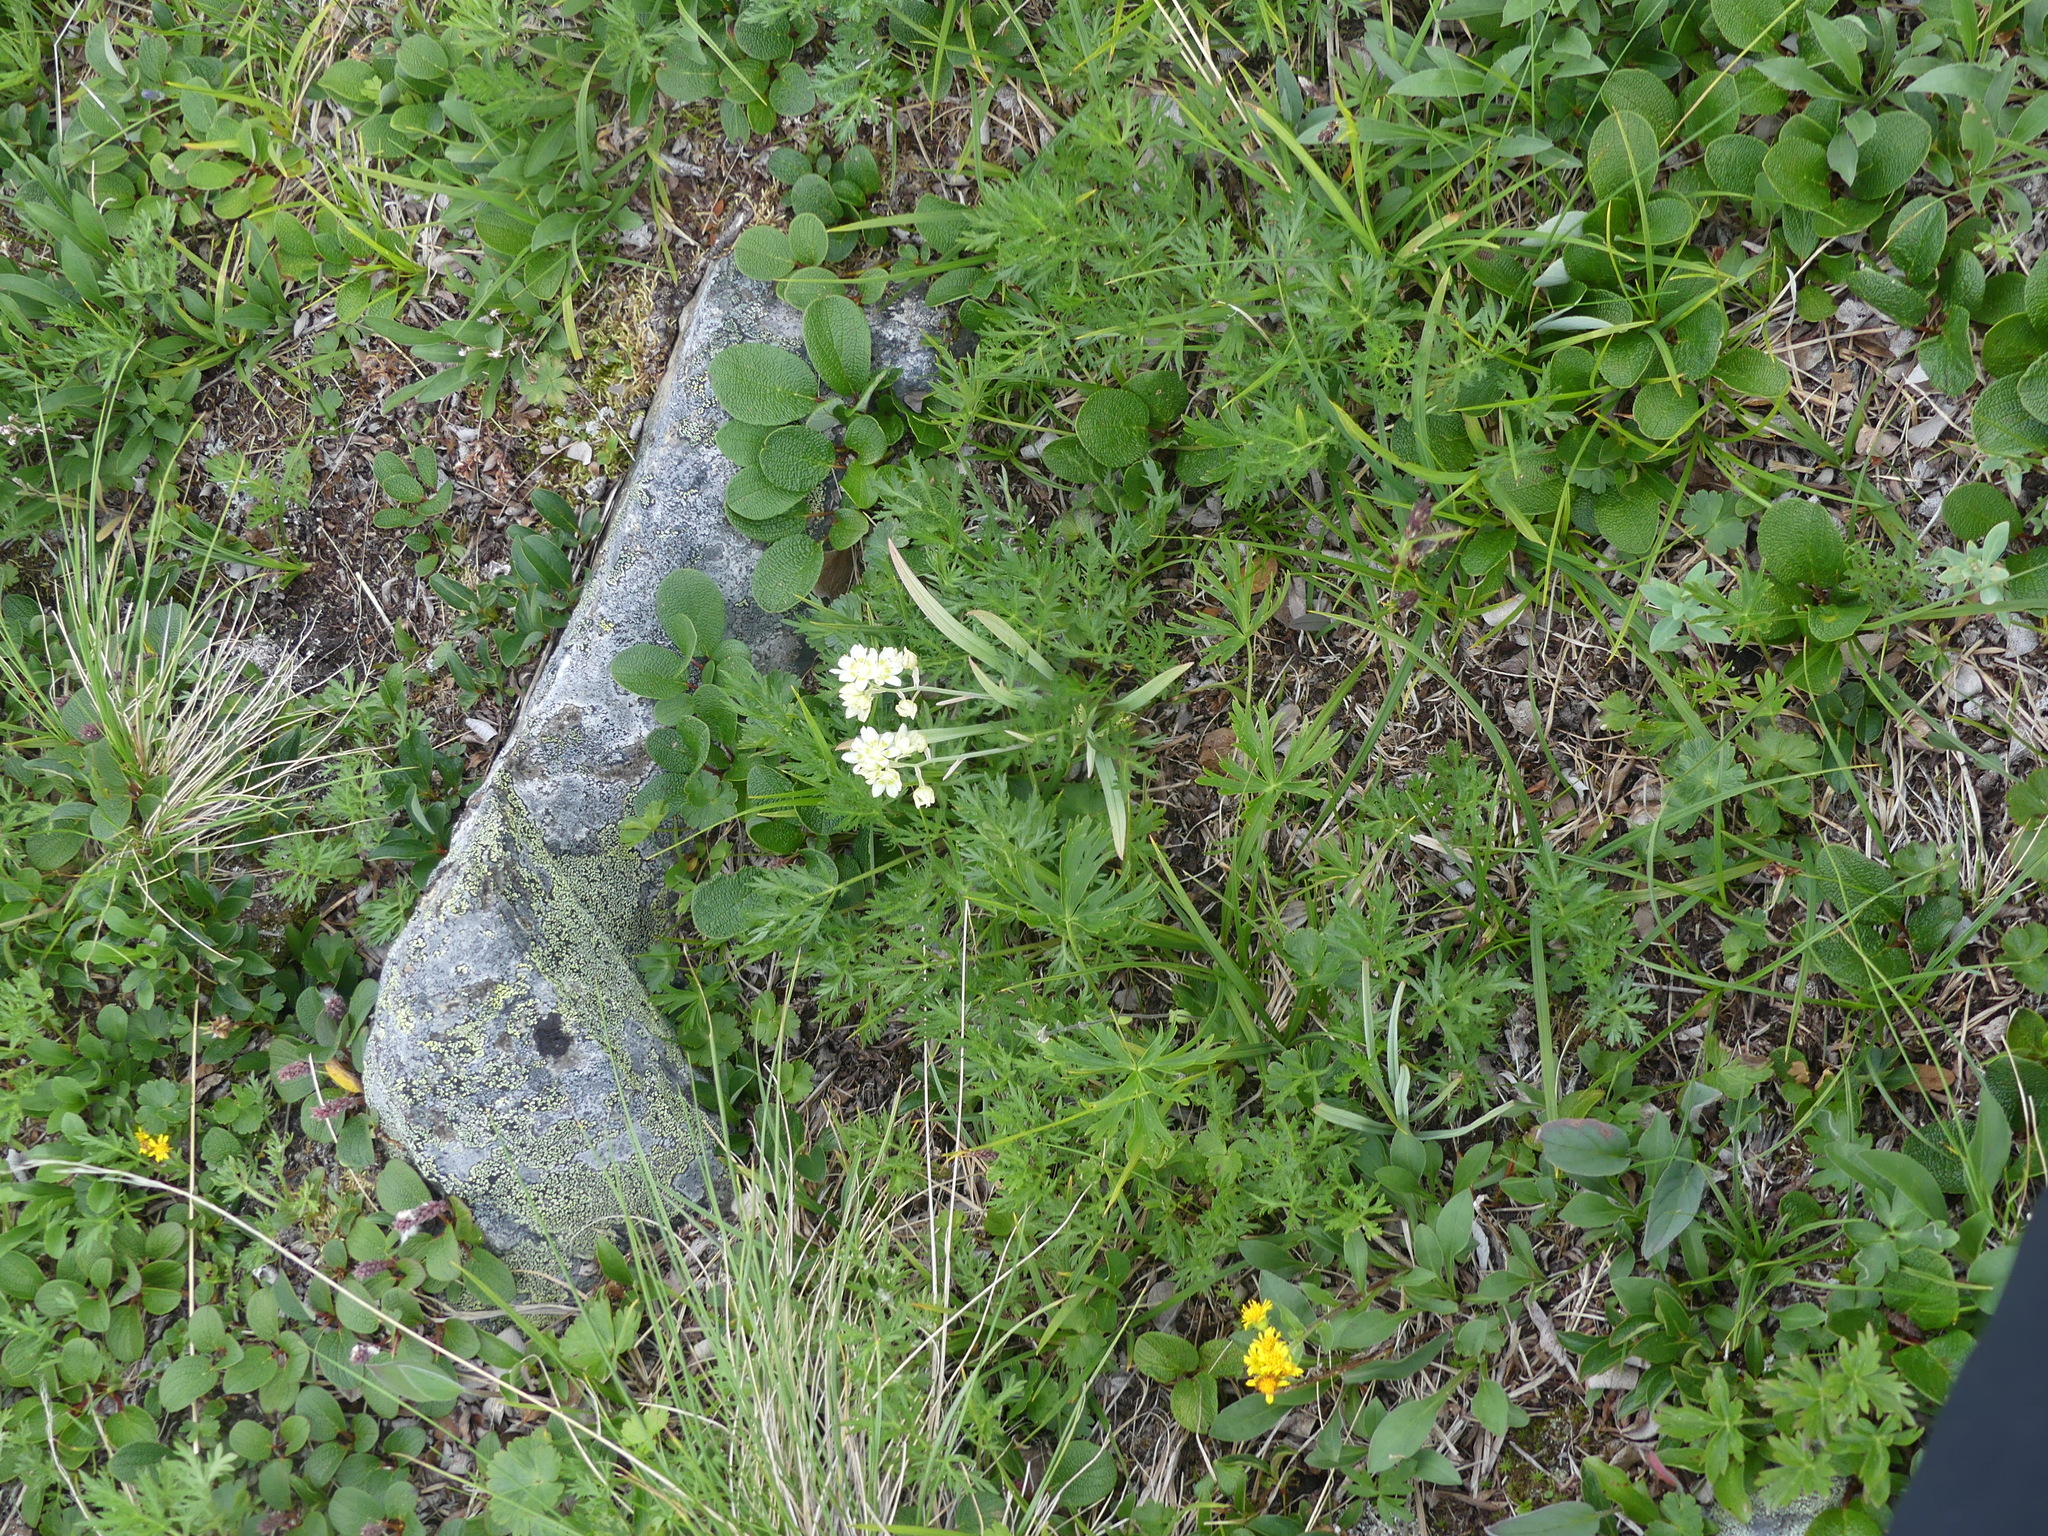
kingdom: Plantae
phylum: Tracheophyta
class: Liliopsida
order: Liliales
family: Melanthiaceae
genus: Anticlea
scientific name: Anticlea elegans
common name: Mountain death camas
